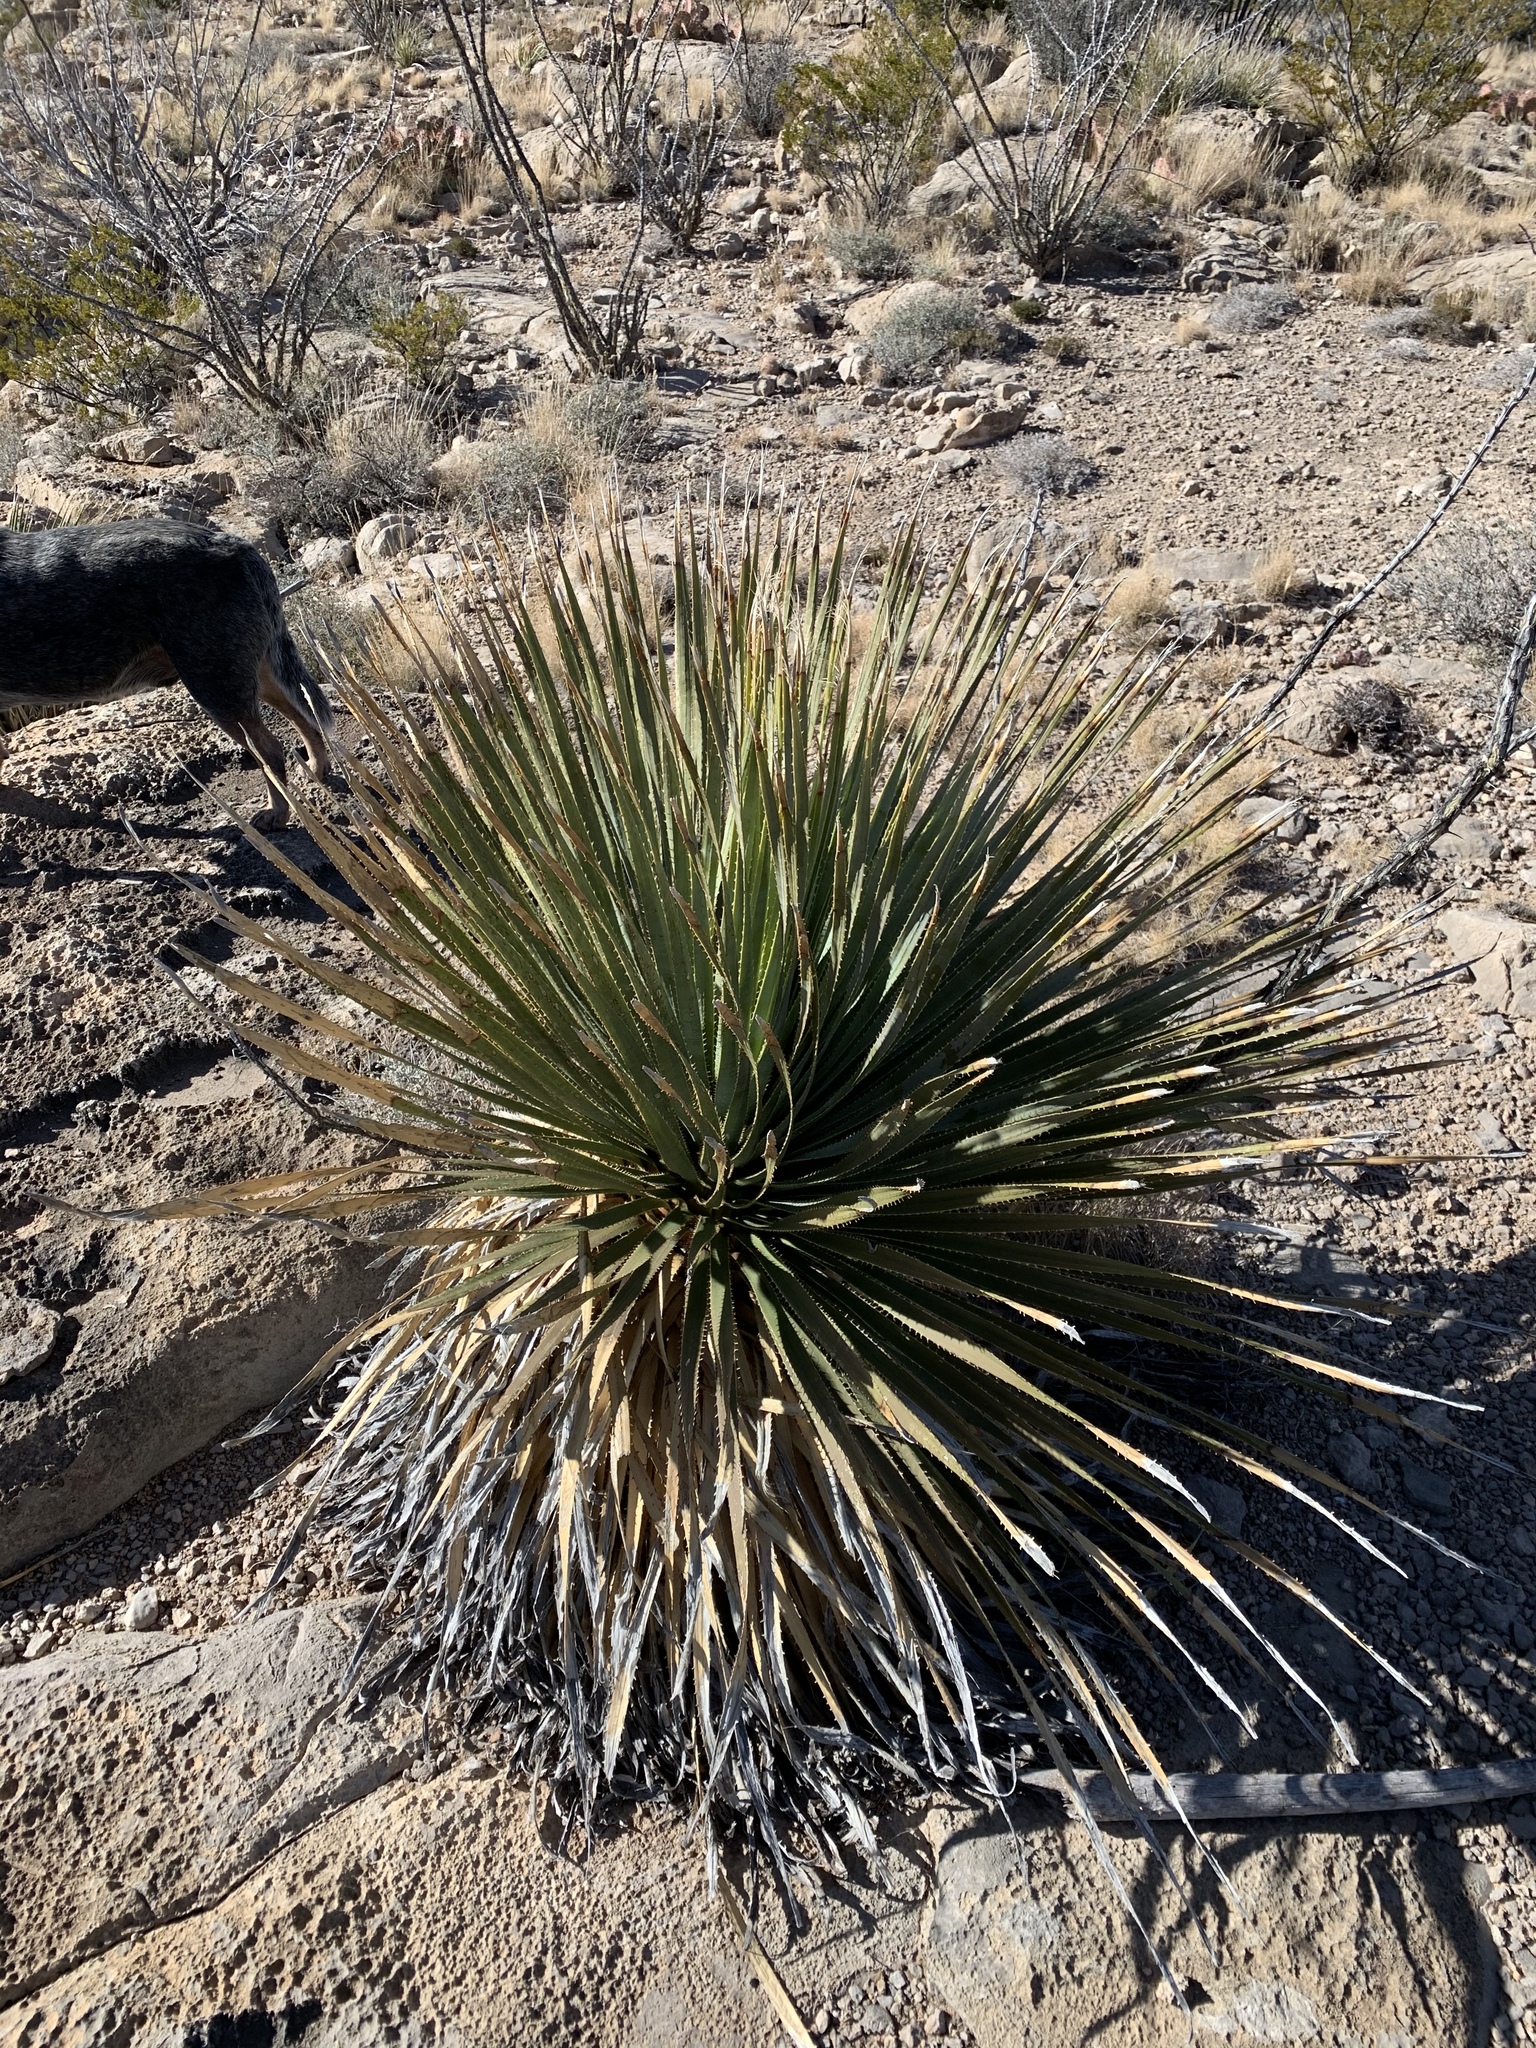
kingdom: Plantae
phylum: Tracheophyta
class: Liliopsida
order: Asparagales
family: Asparagaceae
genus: Dasylirion
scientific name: Dasylirion wheeleri
